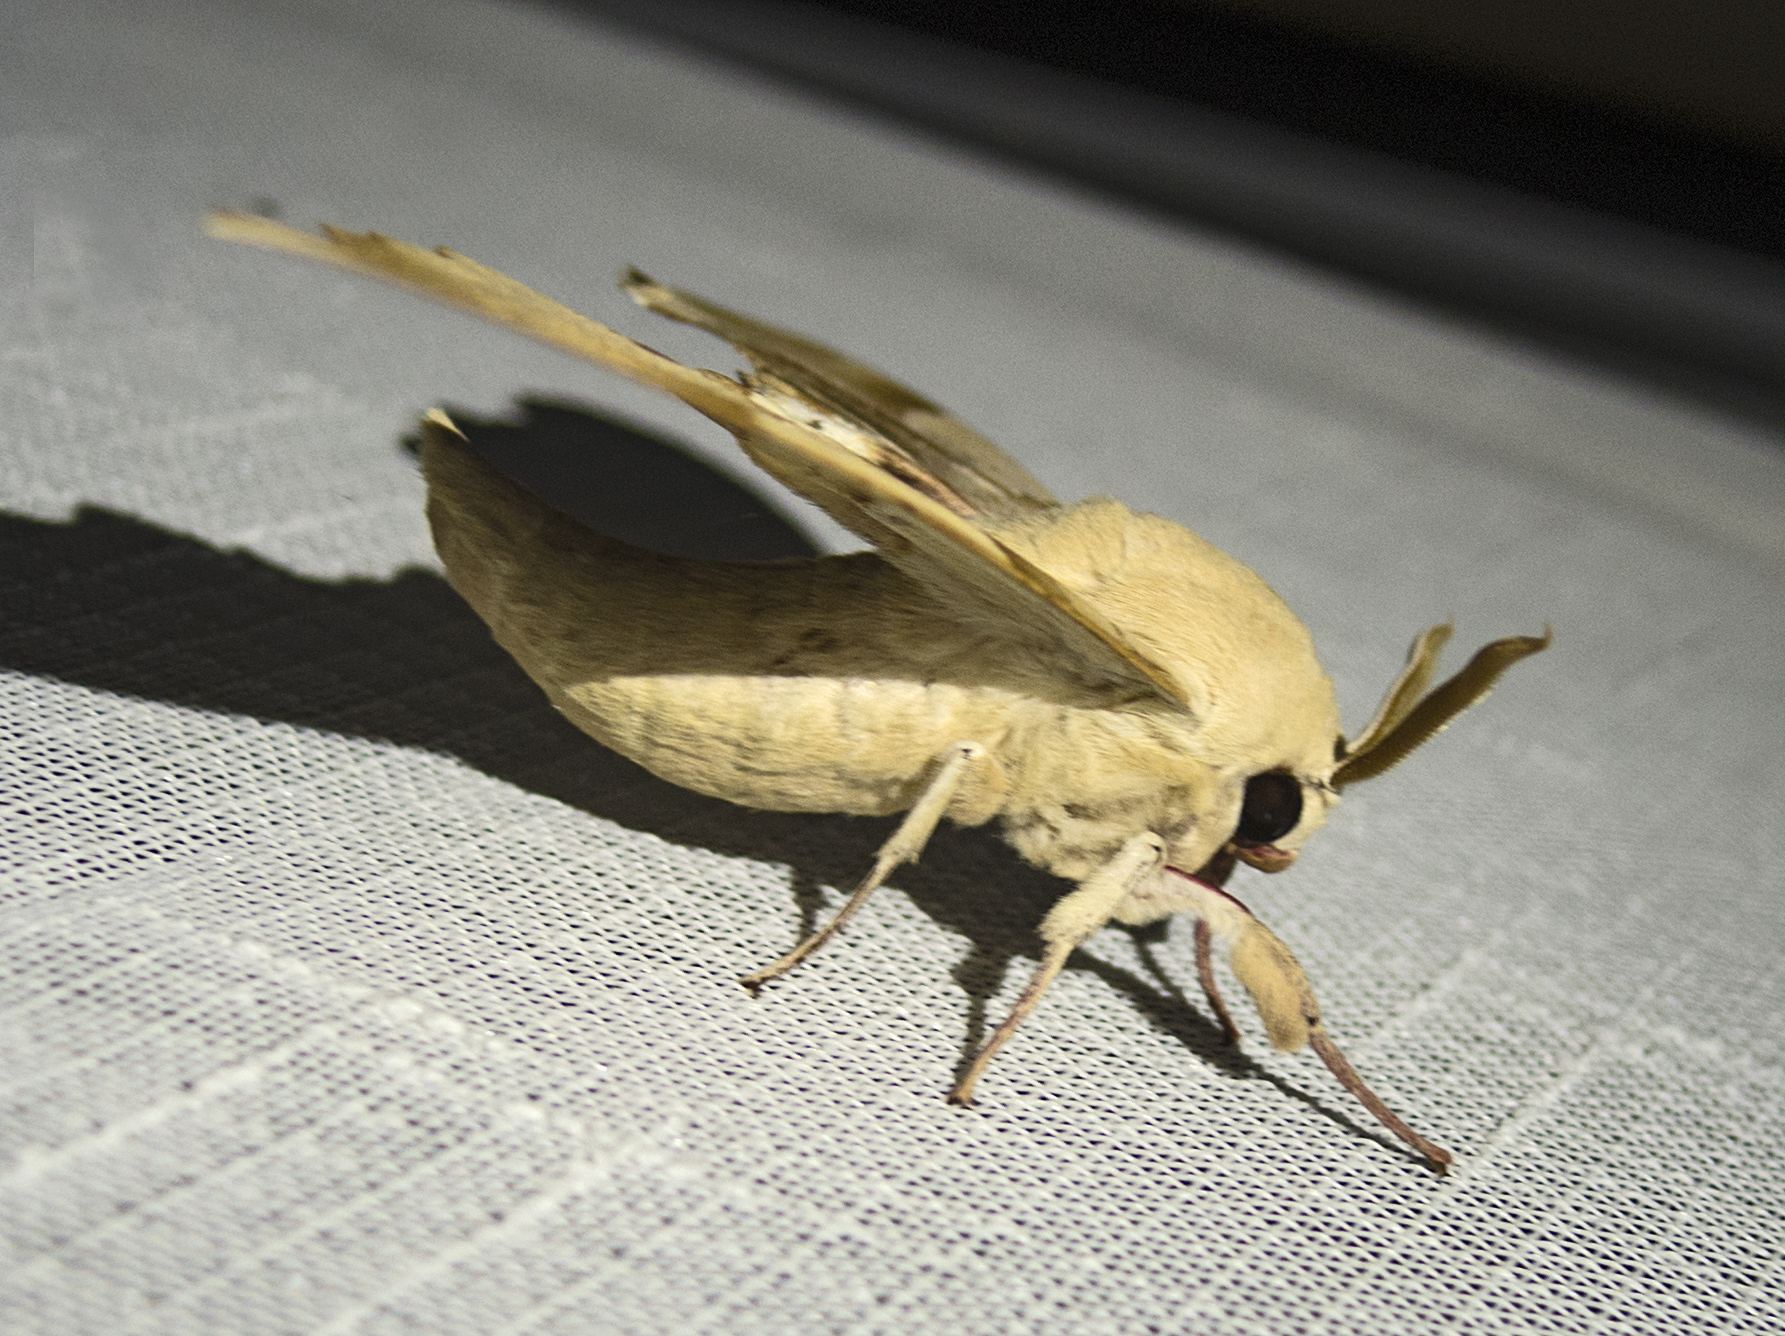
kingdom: Animalia
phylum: Arthropoda
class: Insecta
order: Lepidoptera
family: Sphingidae
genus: Marumba
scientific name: Marumba quercus
